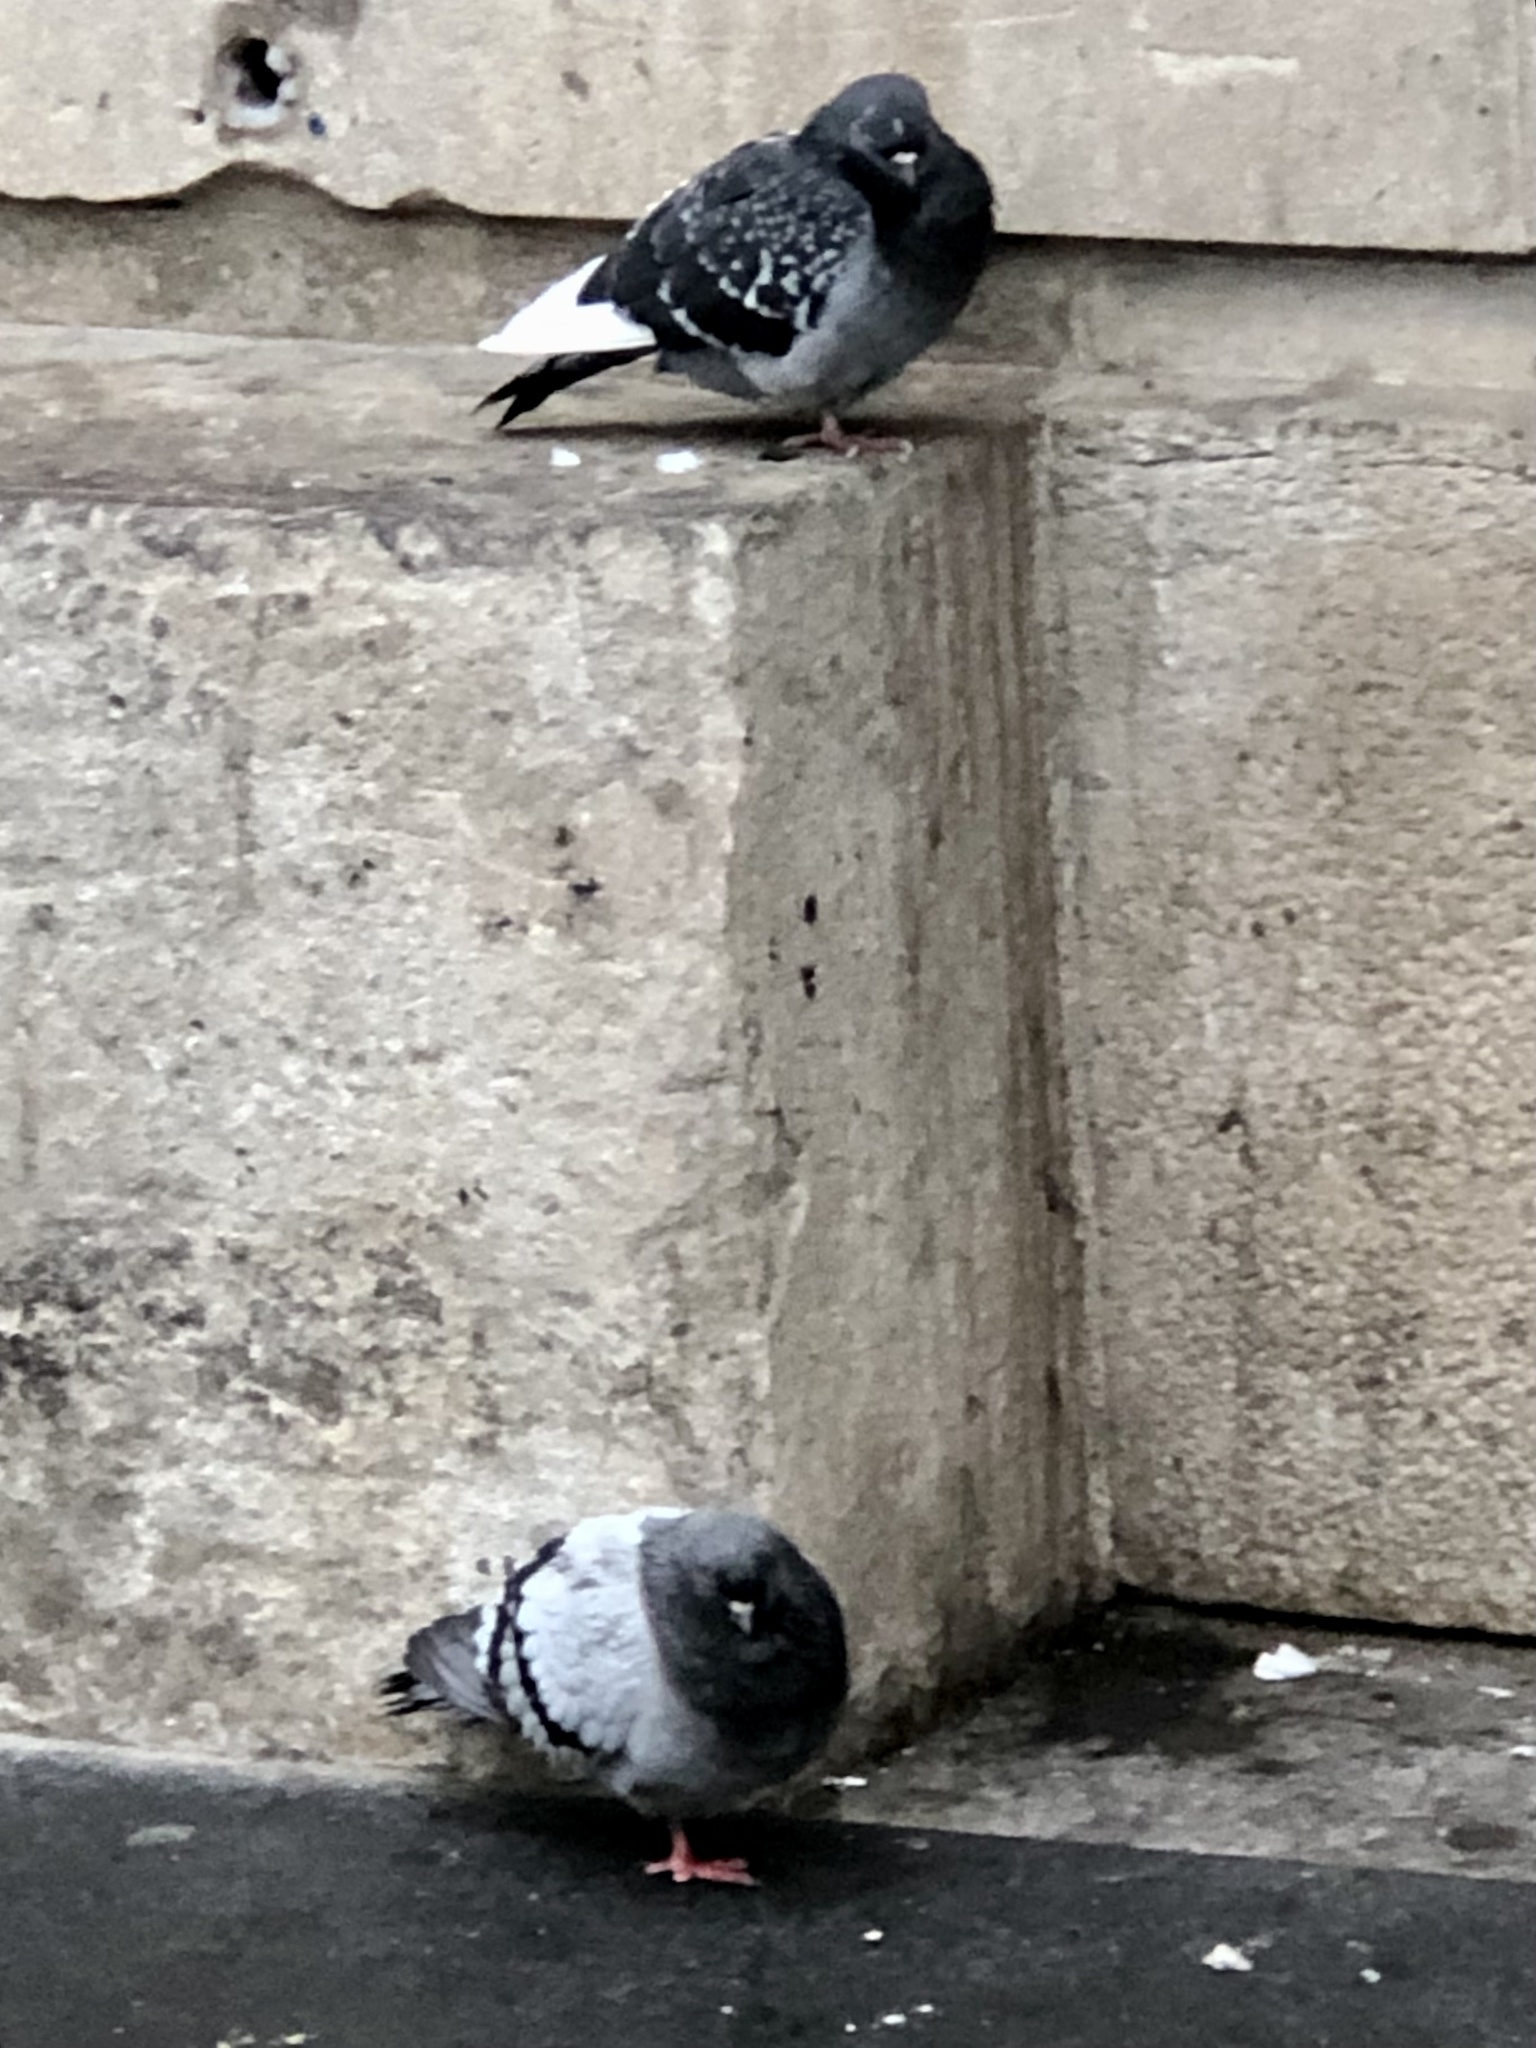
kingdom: Animalia
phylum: Chordata
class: Aves
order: Columbiformes
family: Columbidae
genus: Columba
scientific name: Columba livia
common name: Rock pigeon
